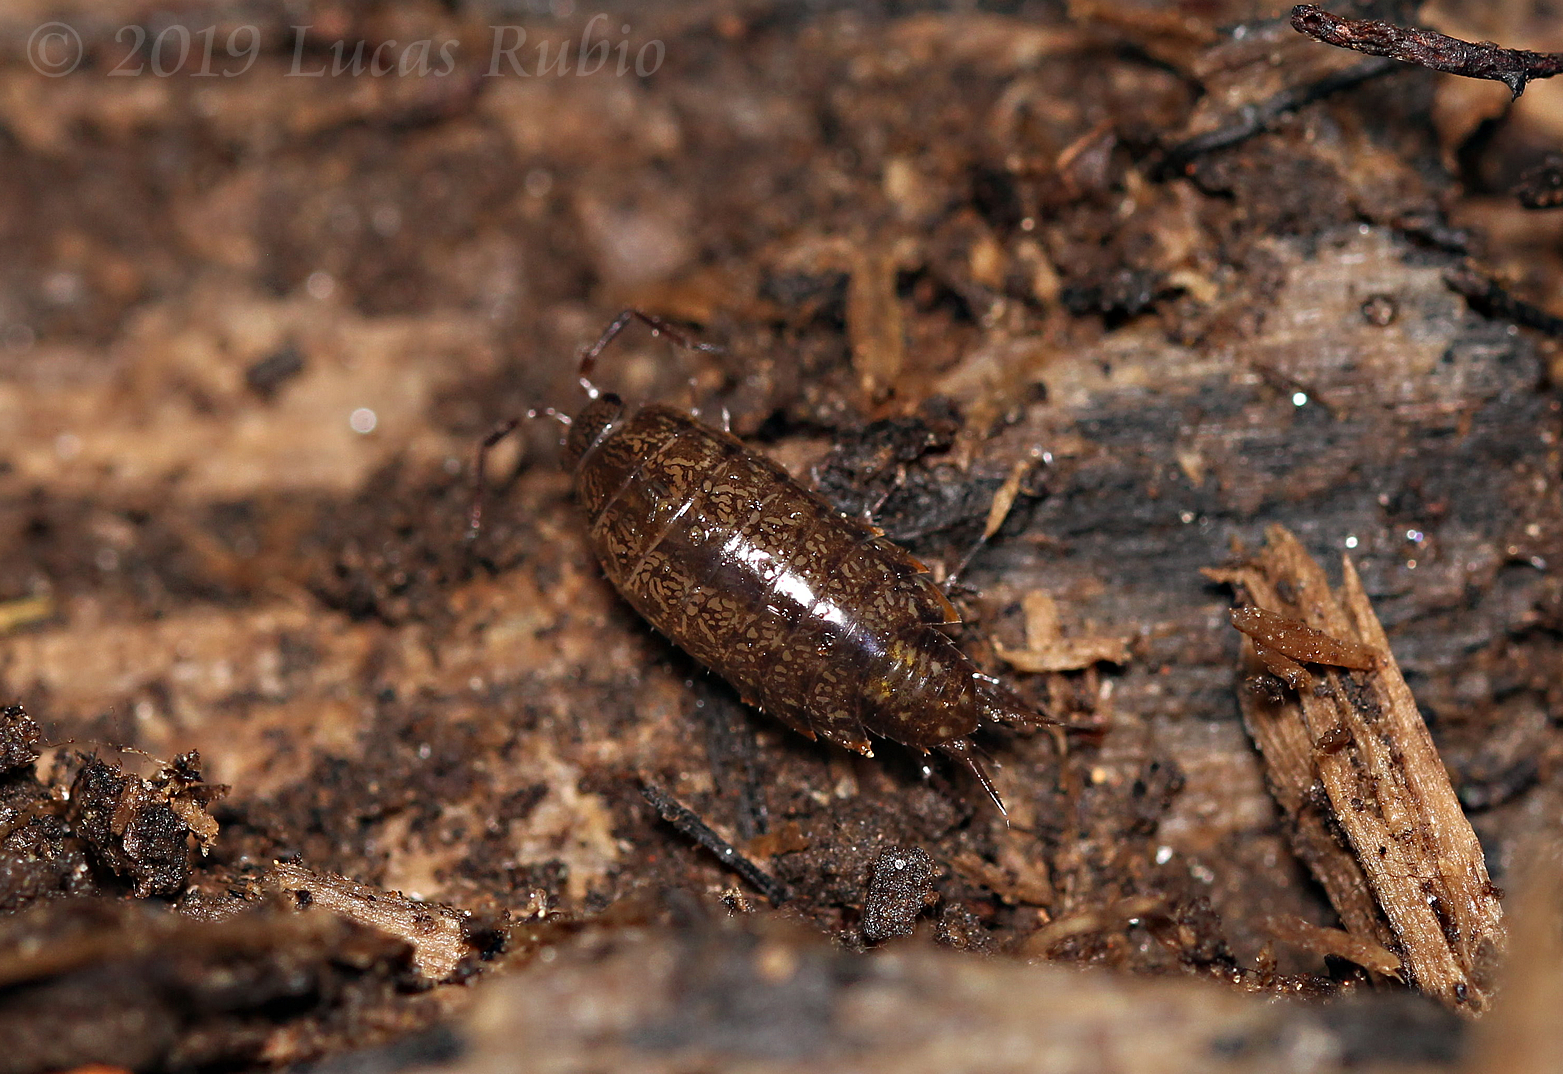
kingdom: Animalia
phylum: Arthropoda
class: Malacostraca
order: Isopoda
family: Balloniscidae
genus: Balloniscus
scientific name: Balloniscus sellowii
